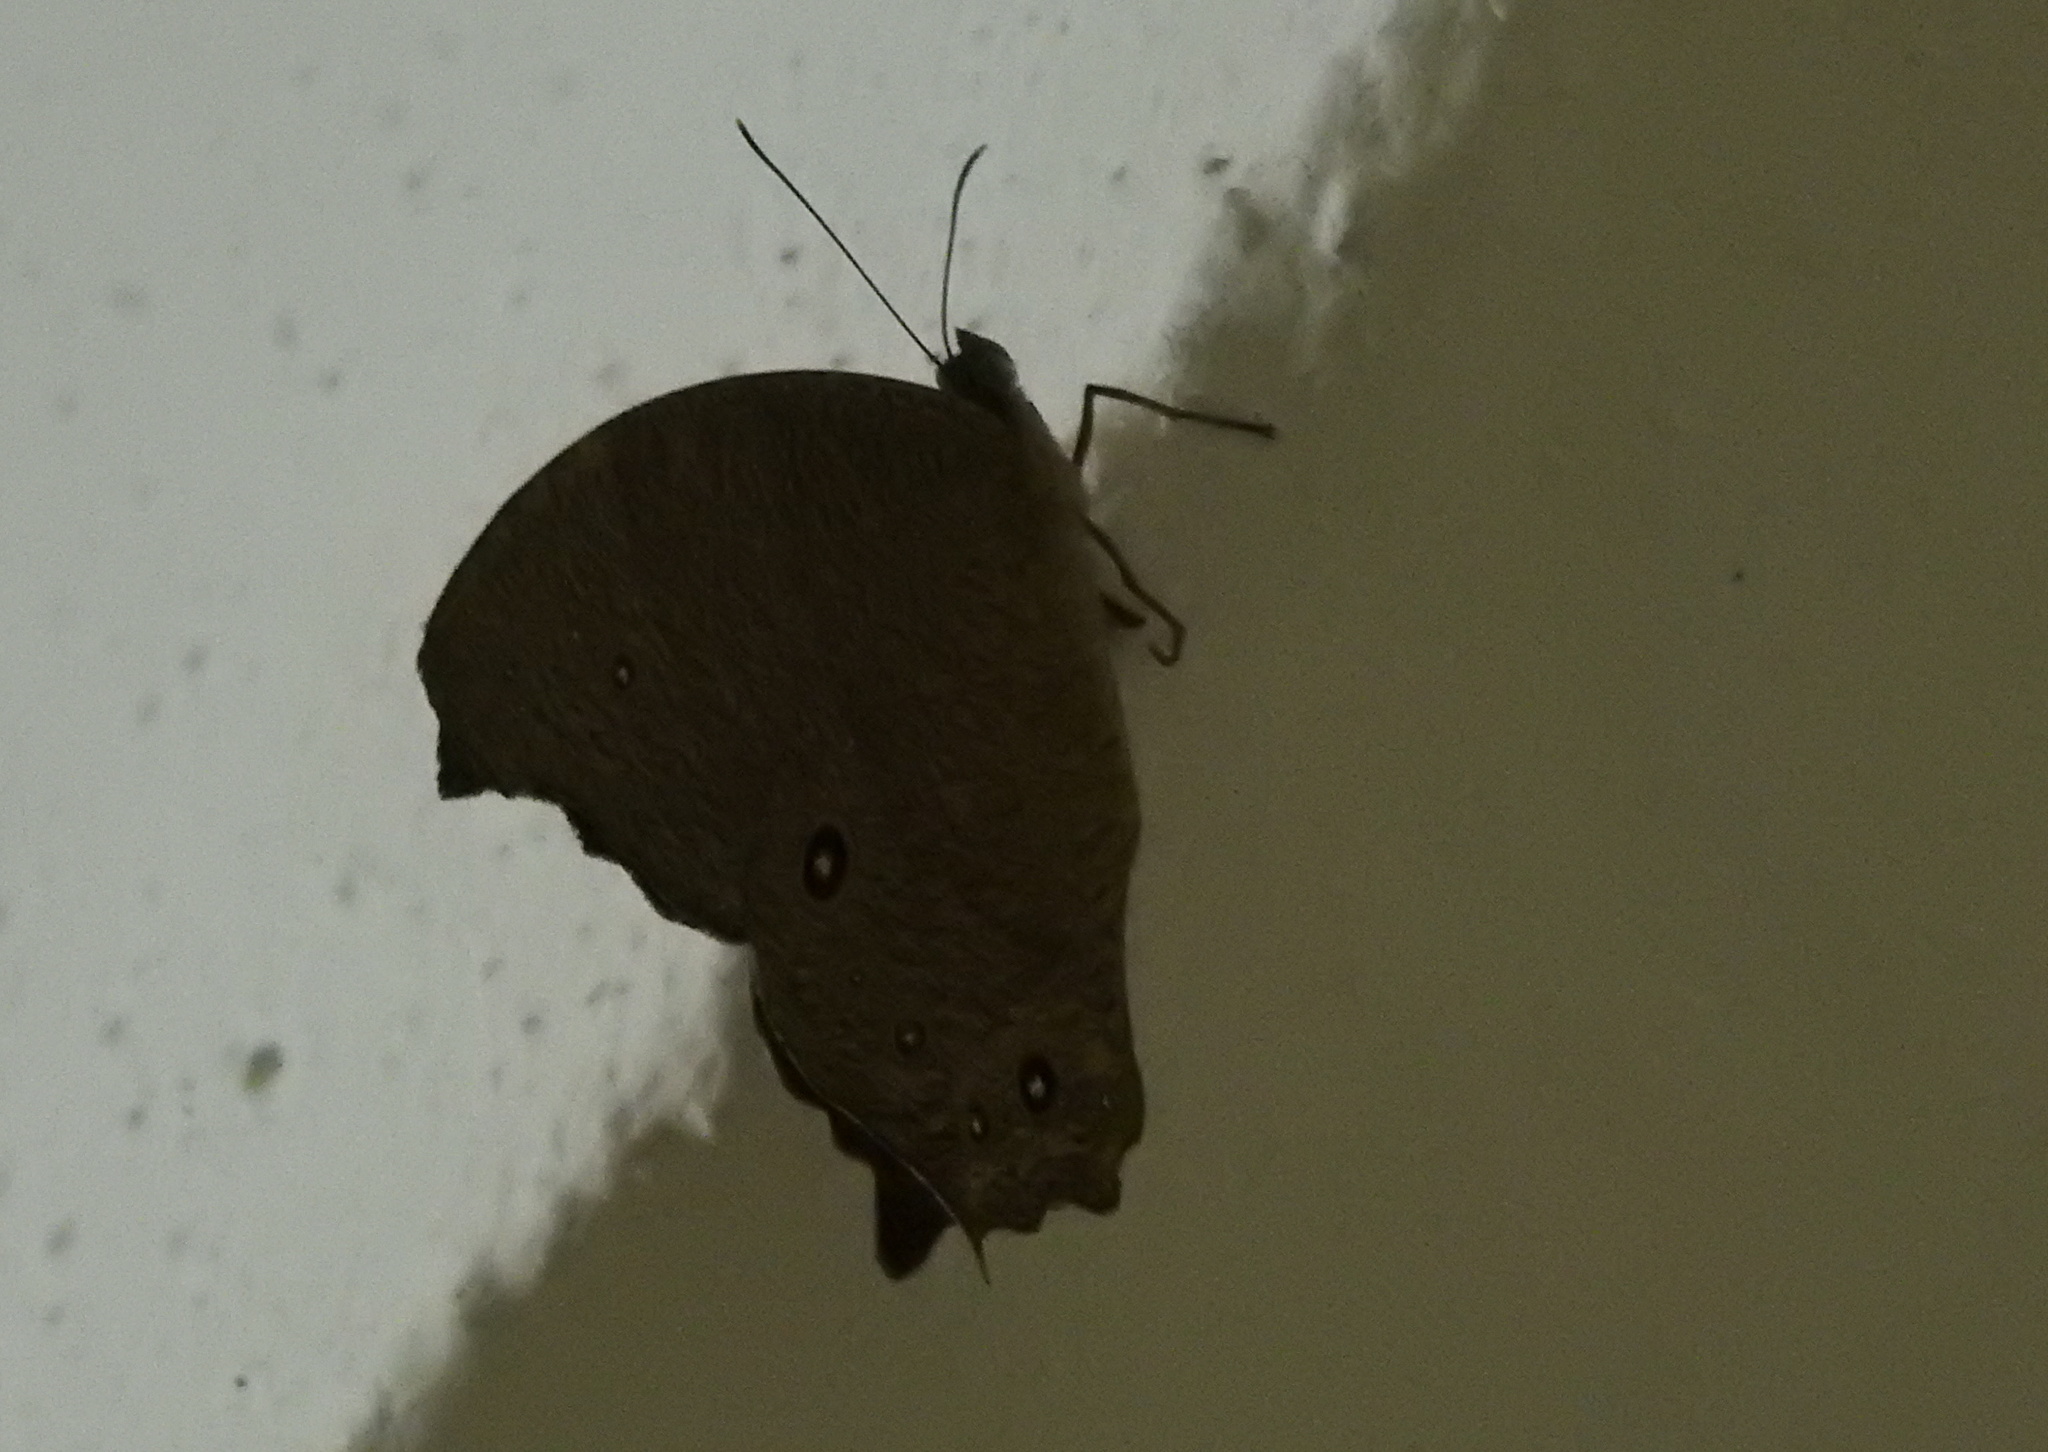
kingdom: Animalia
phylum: Arthropoda
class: Insecta
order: Lepidoptera
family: Nymphalidae
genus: Melanitis
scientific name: Melanitis leda
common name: Twilight brown
